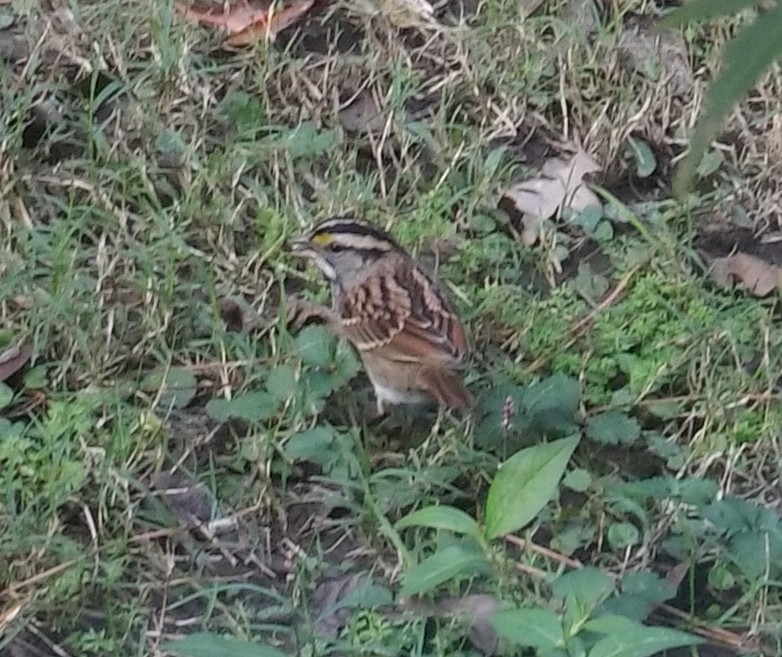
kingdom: Animalia
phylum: Chordata
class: Aves
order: Passeriformes
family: Passerellidae
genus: Zonotrichia
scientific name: Zonotrichia albicollis
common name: White-throated sparrow
